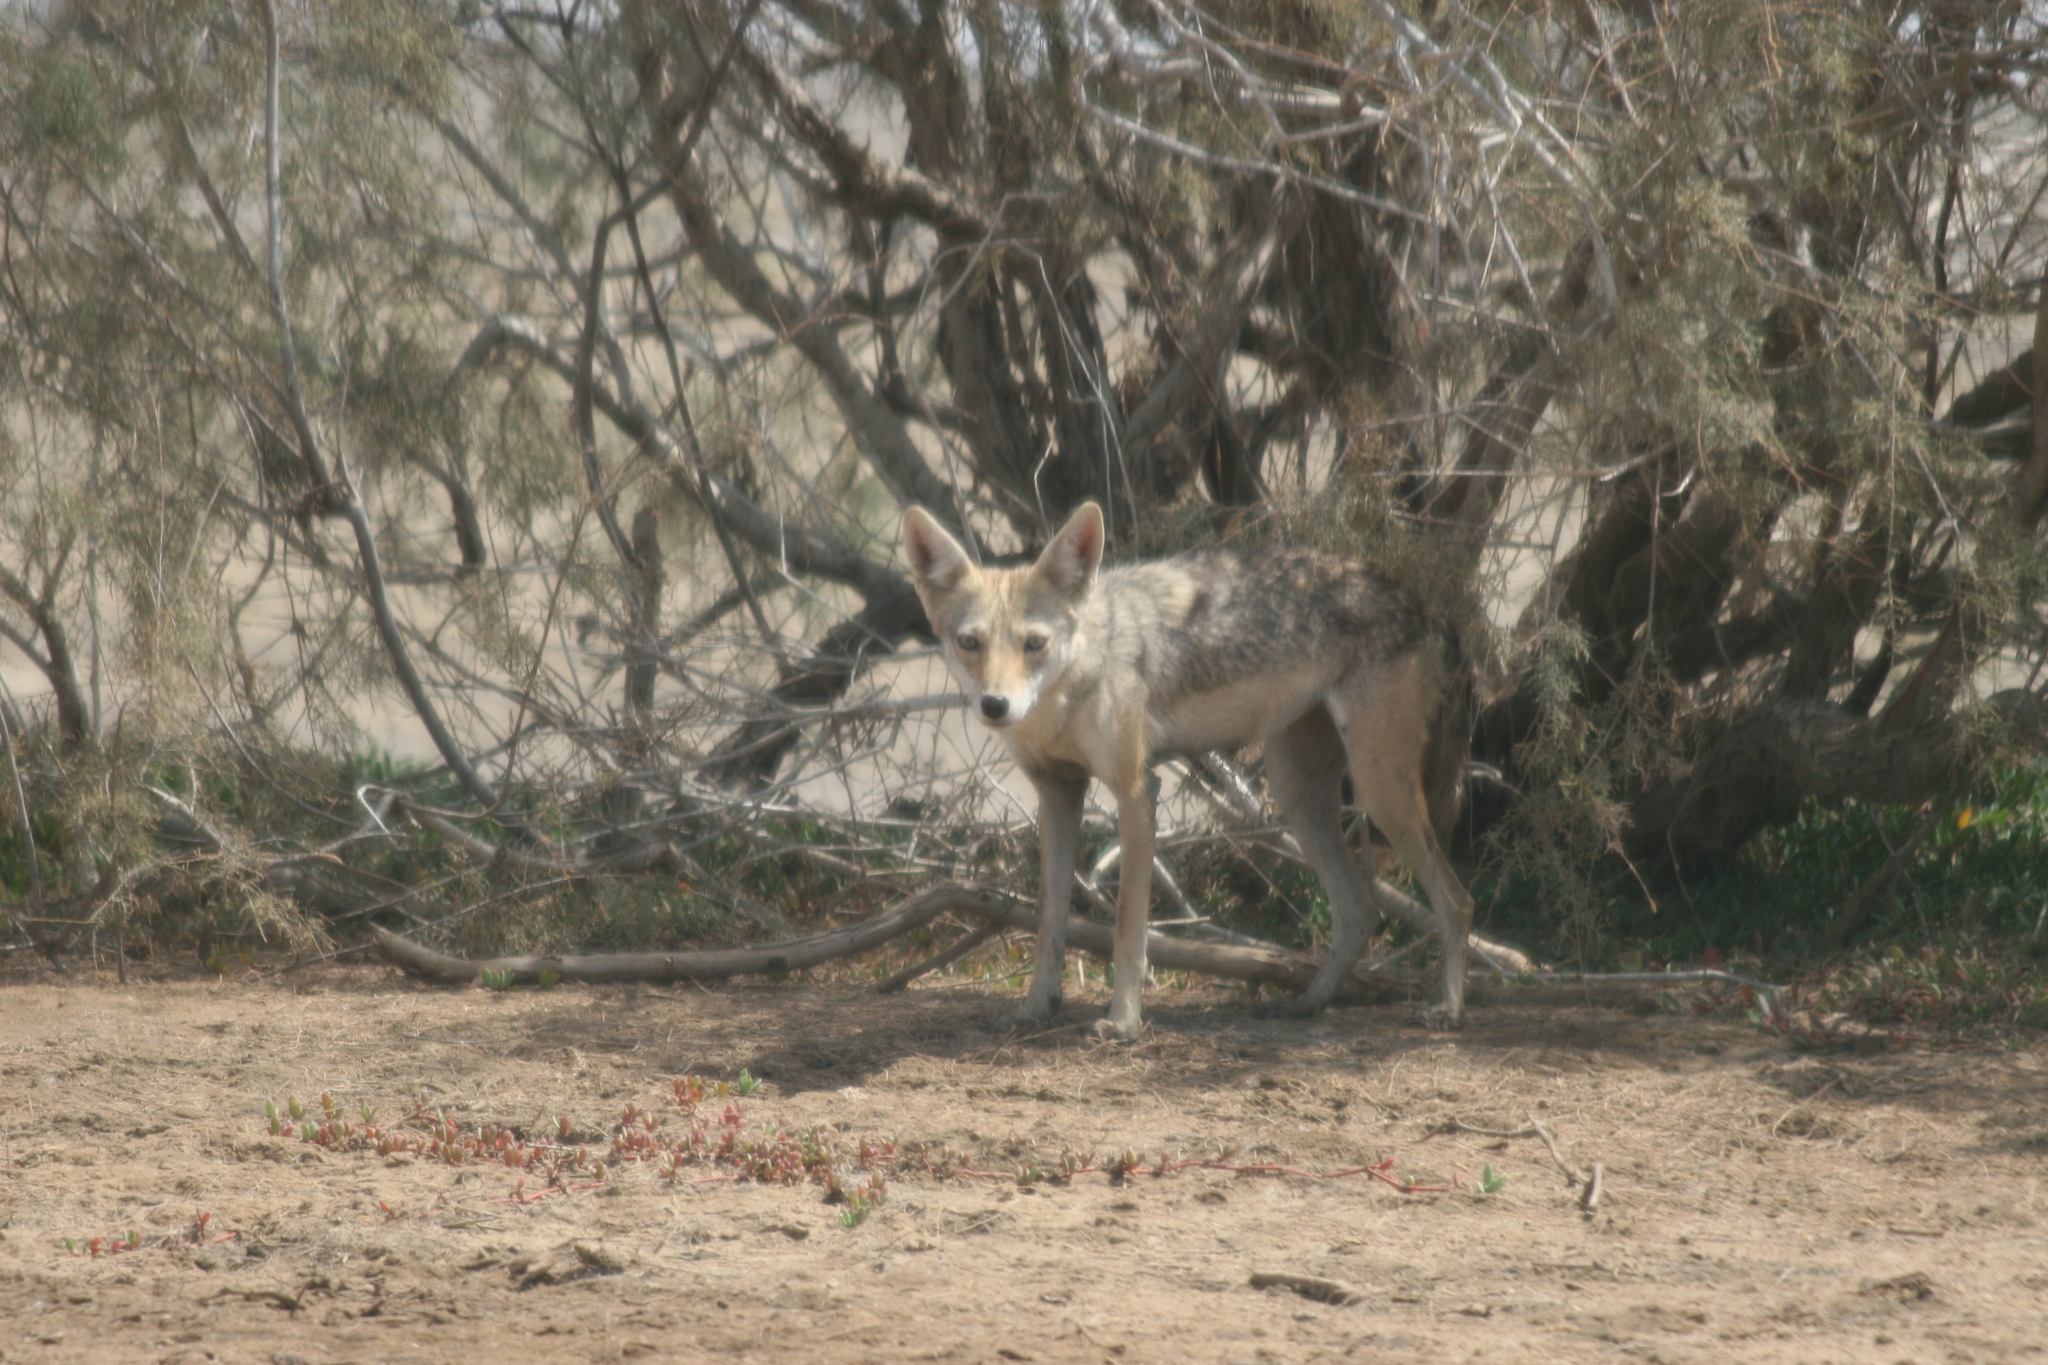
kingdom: Animalia
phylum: Chordata
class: Mammalia
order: Carnivora
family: Canidae
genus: Canis
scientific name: Canis lupaster
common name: African golden wolf
